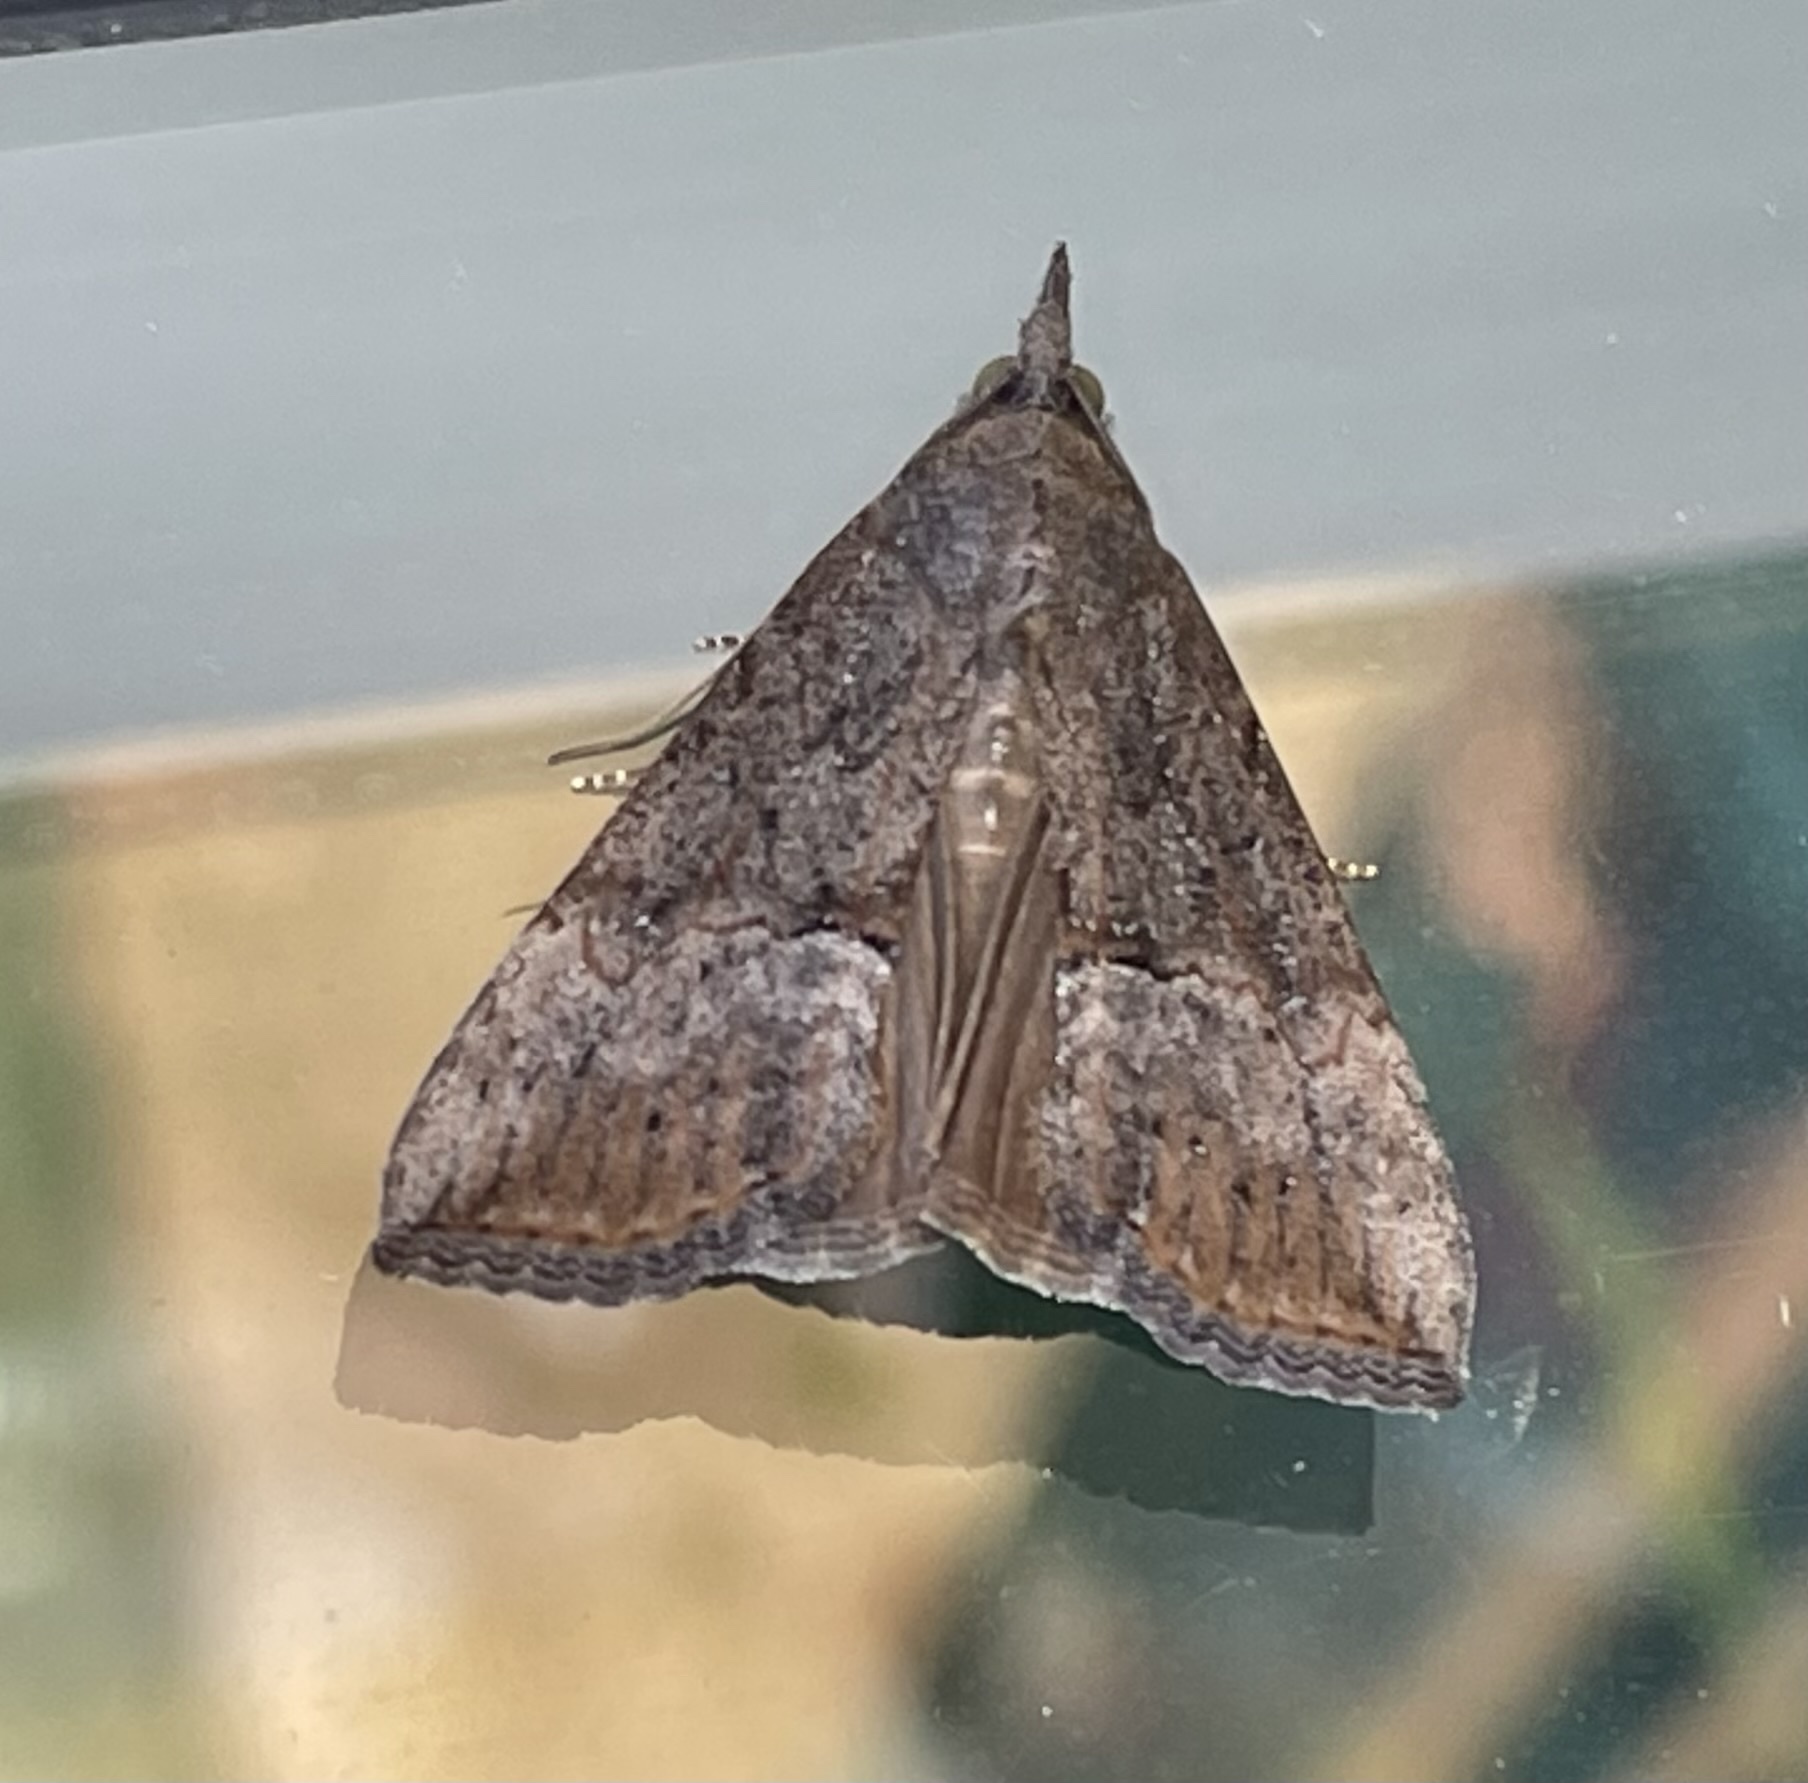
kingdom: Animalia
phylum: Arthropoda
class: Insecta
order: Lepidoptera
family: Erebidae
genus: Hypena
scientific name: Hypena scabra
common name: Green cloverworm
